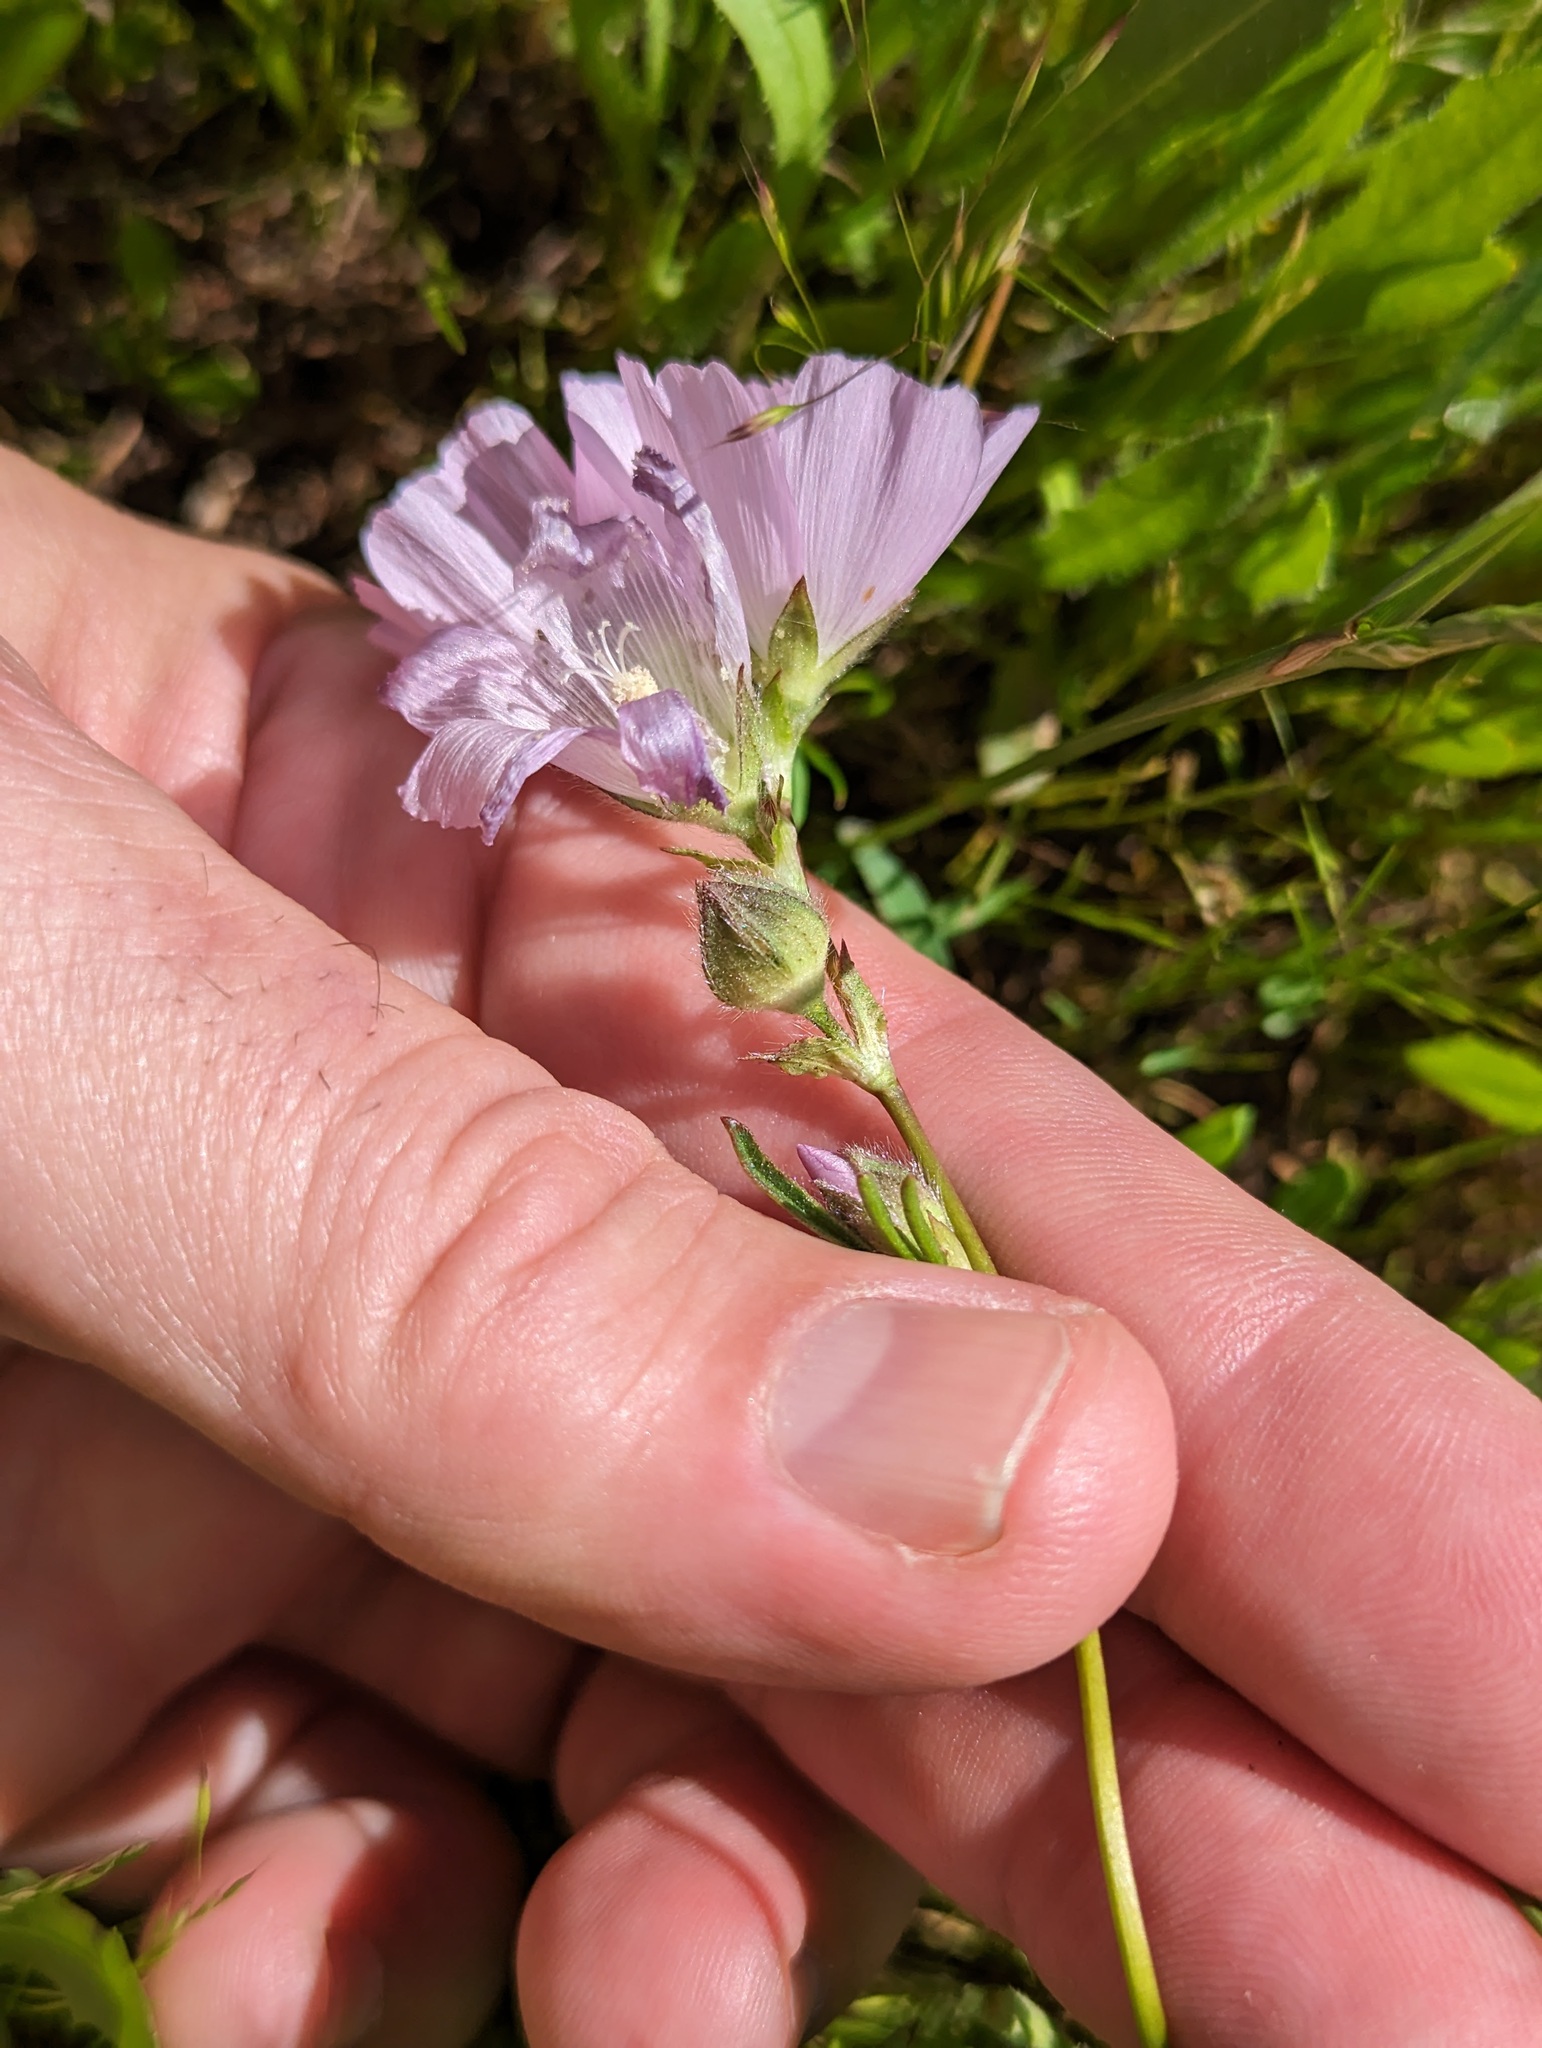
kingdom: Plantae
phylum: Tracheophyta
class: Magnoliopsida
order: Malvales
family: Malvaceae
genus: Sidalcea
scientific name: Sidalcea calycosa
